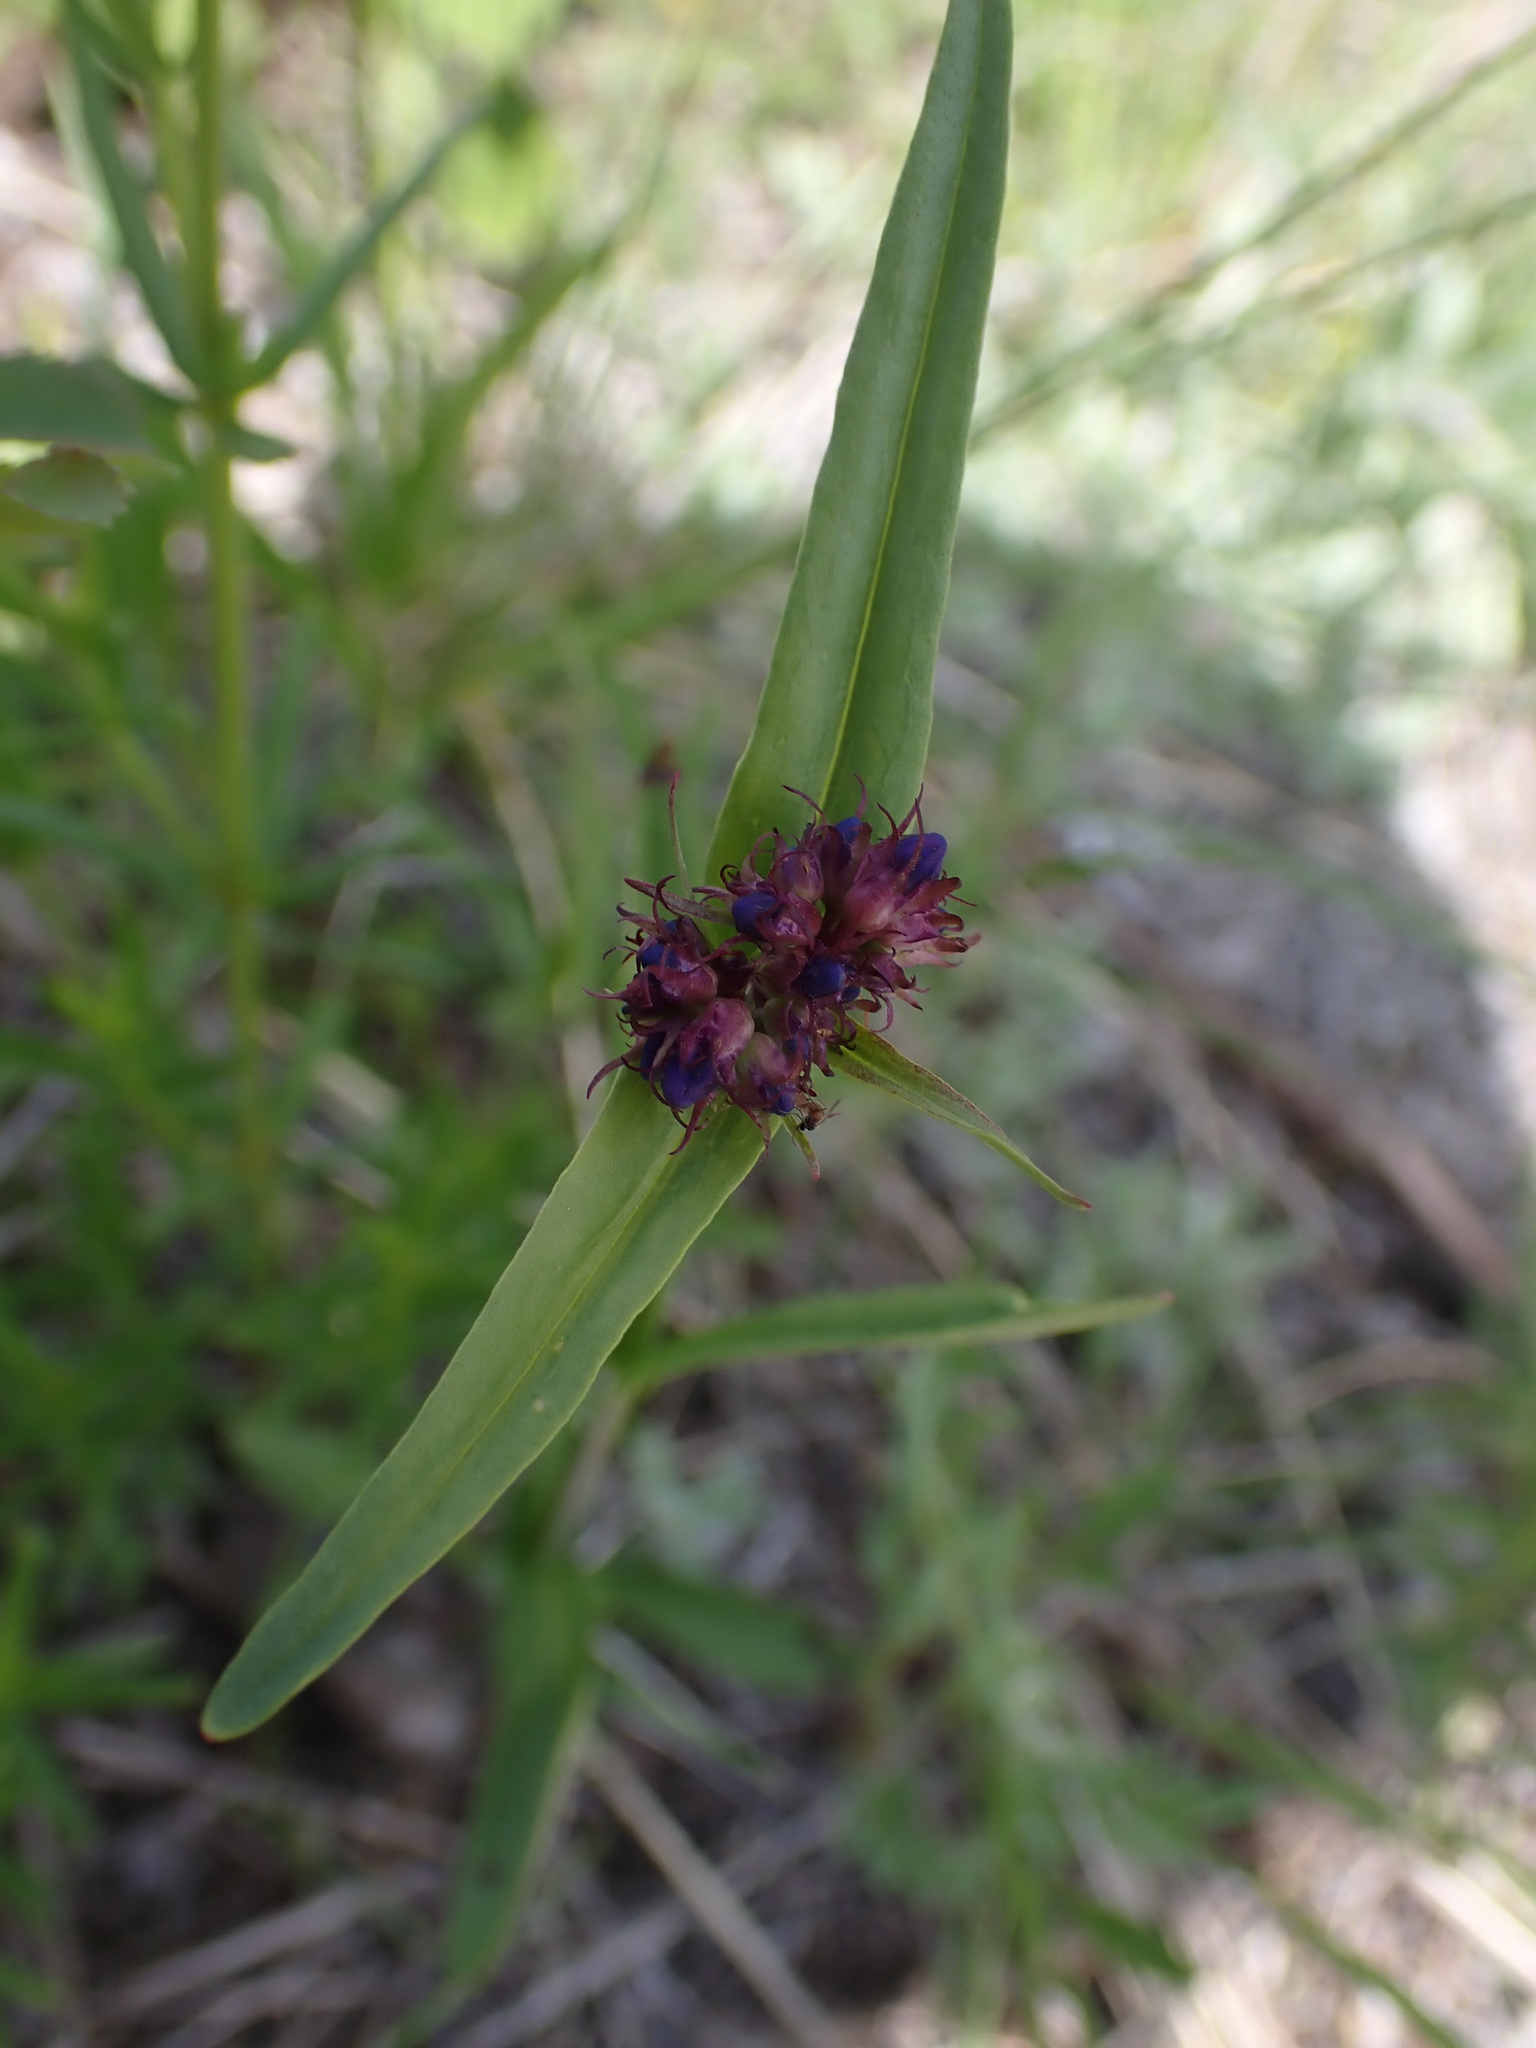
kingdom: Plantae
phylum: Tracheophyta
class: Magnoliopsida
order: Lamiales
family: Plantaginaceae
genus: Penstemon
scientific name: Penstemon procerus
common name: Small-flower penstemon
